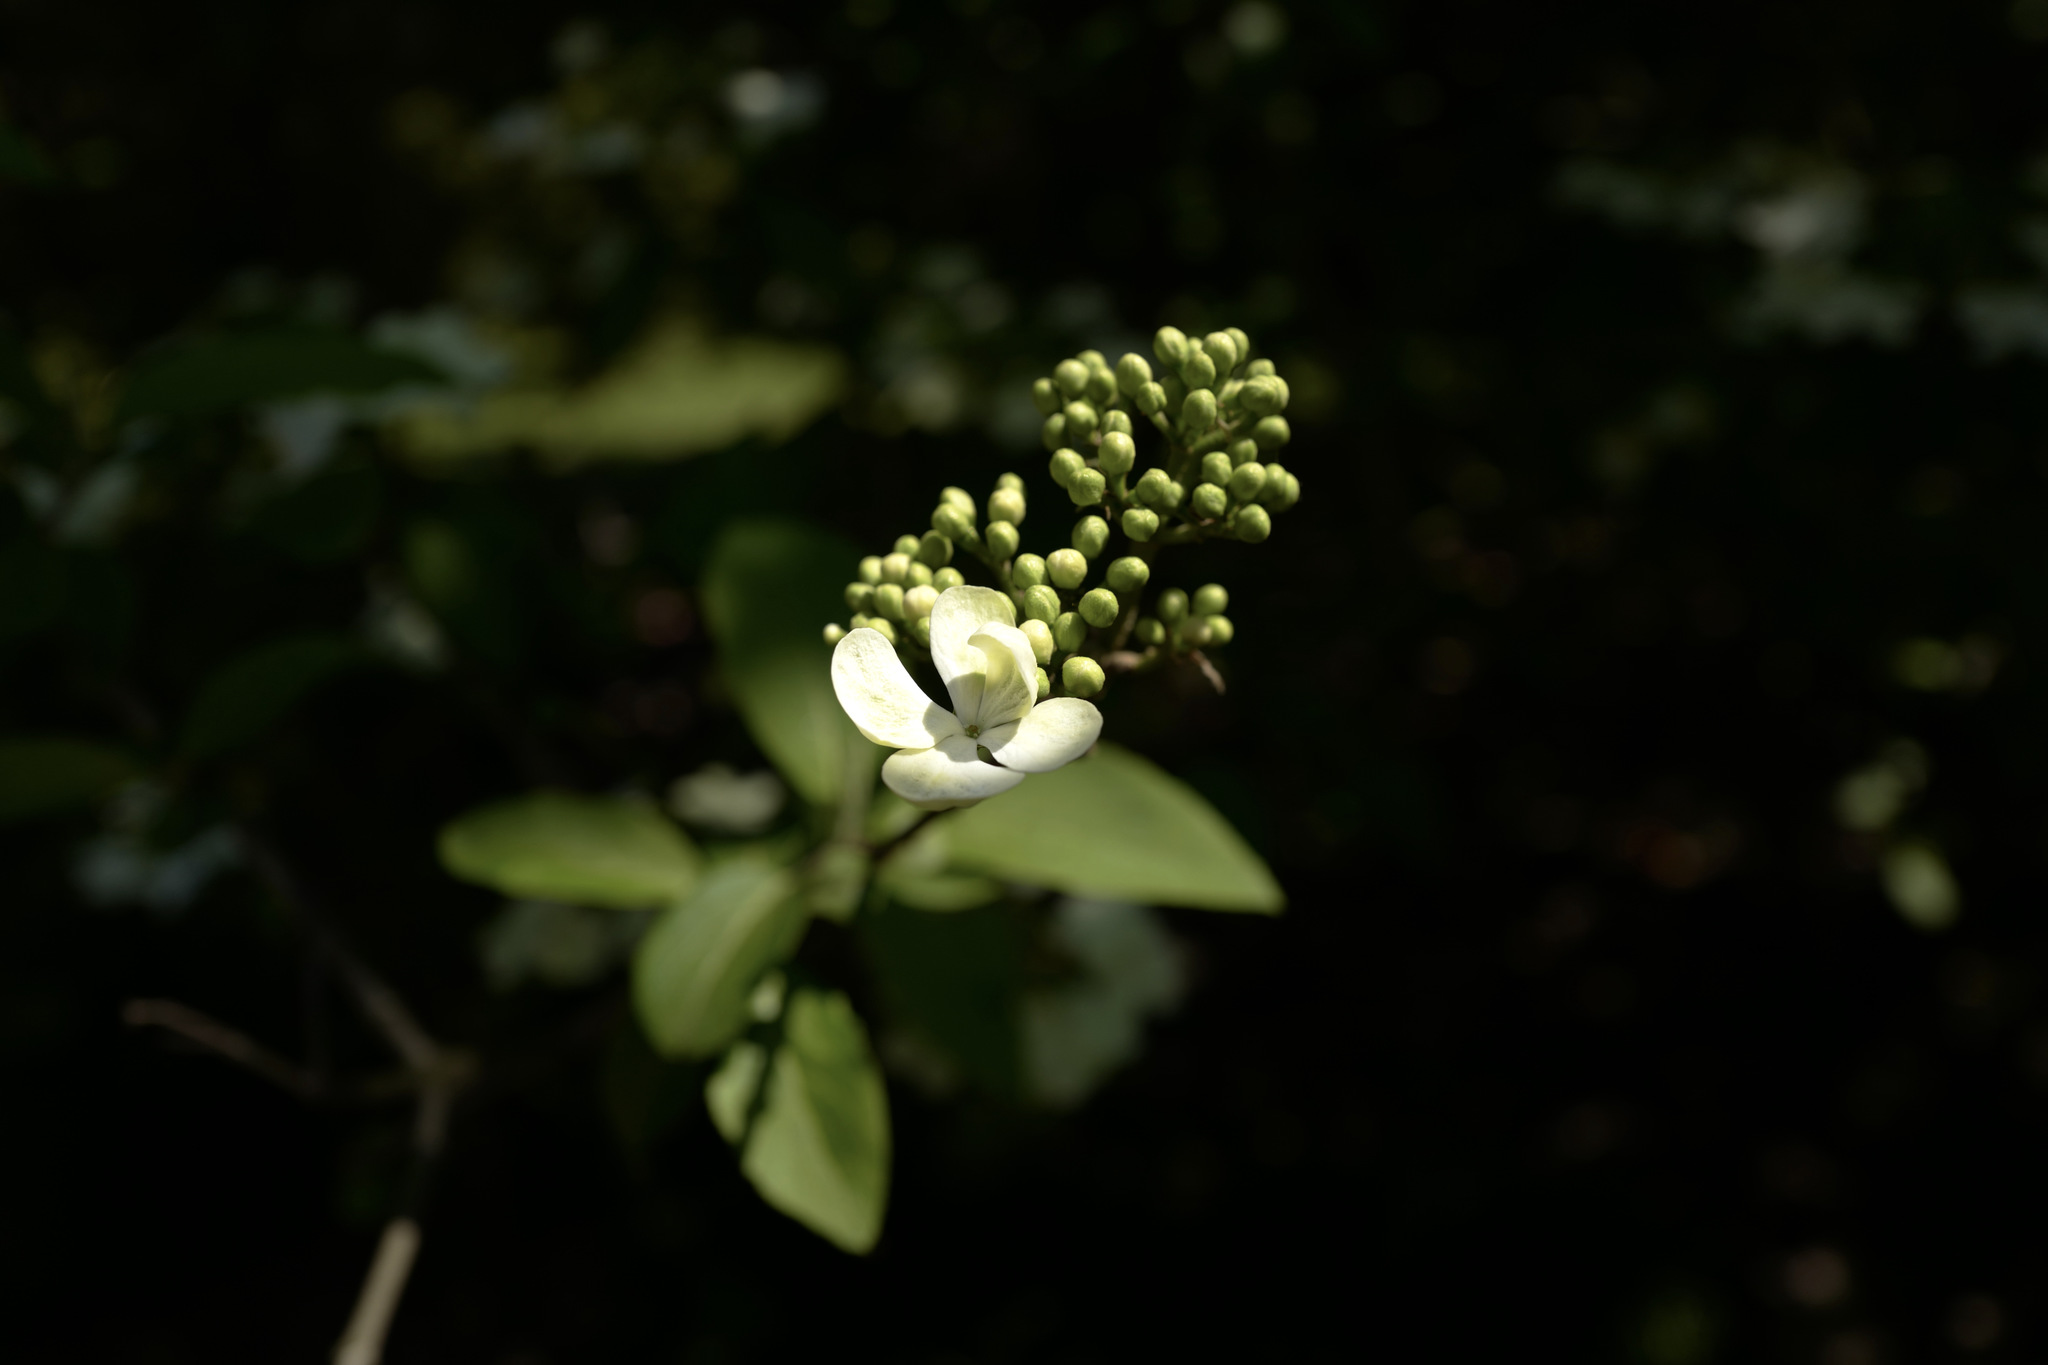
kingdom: Plantae
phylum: Tracheophyta
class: Magnoliopsida
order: Dipsacales
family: Viburnaceae
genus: Viburnum
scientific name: Viburnum macrocephalum
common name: Chinese snowball viburnum
